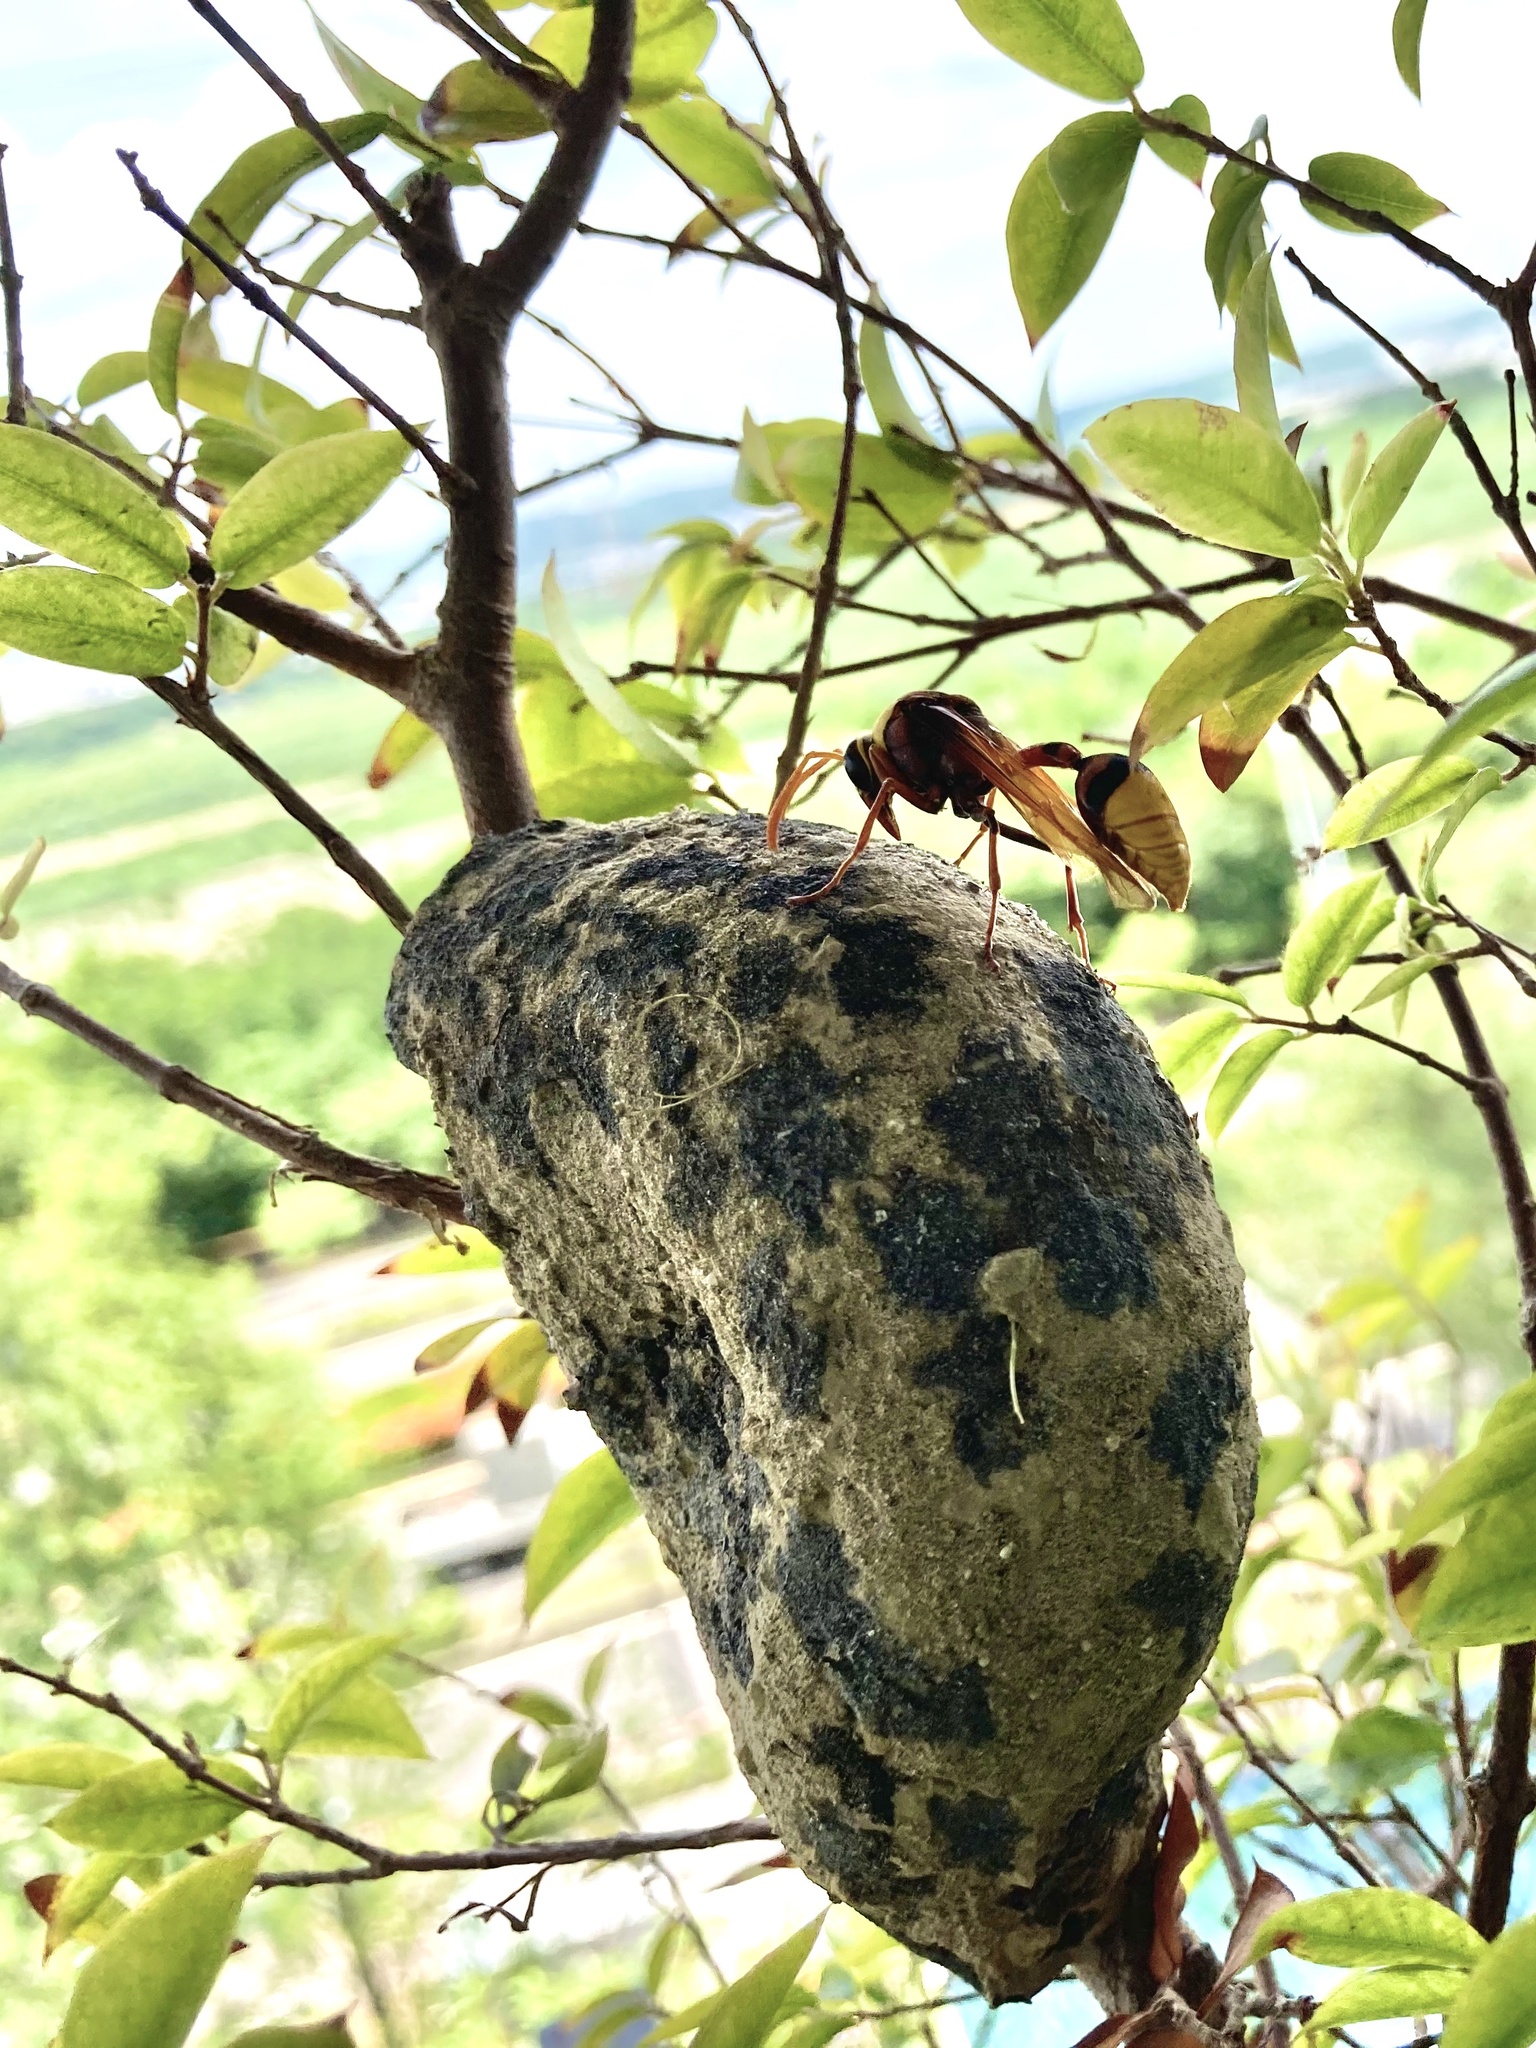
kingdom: Animalia
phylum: Arthropoda
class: Insecta
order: Hymenoptera
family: Eumenidae
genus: Delta
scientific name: Delta pyriforme
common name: Wasp
